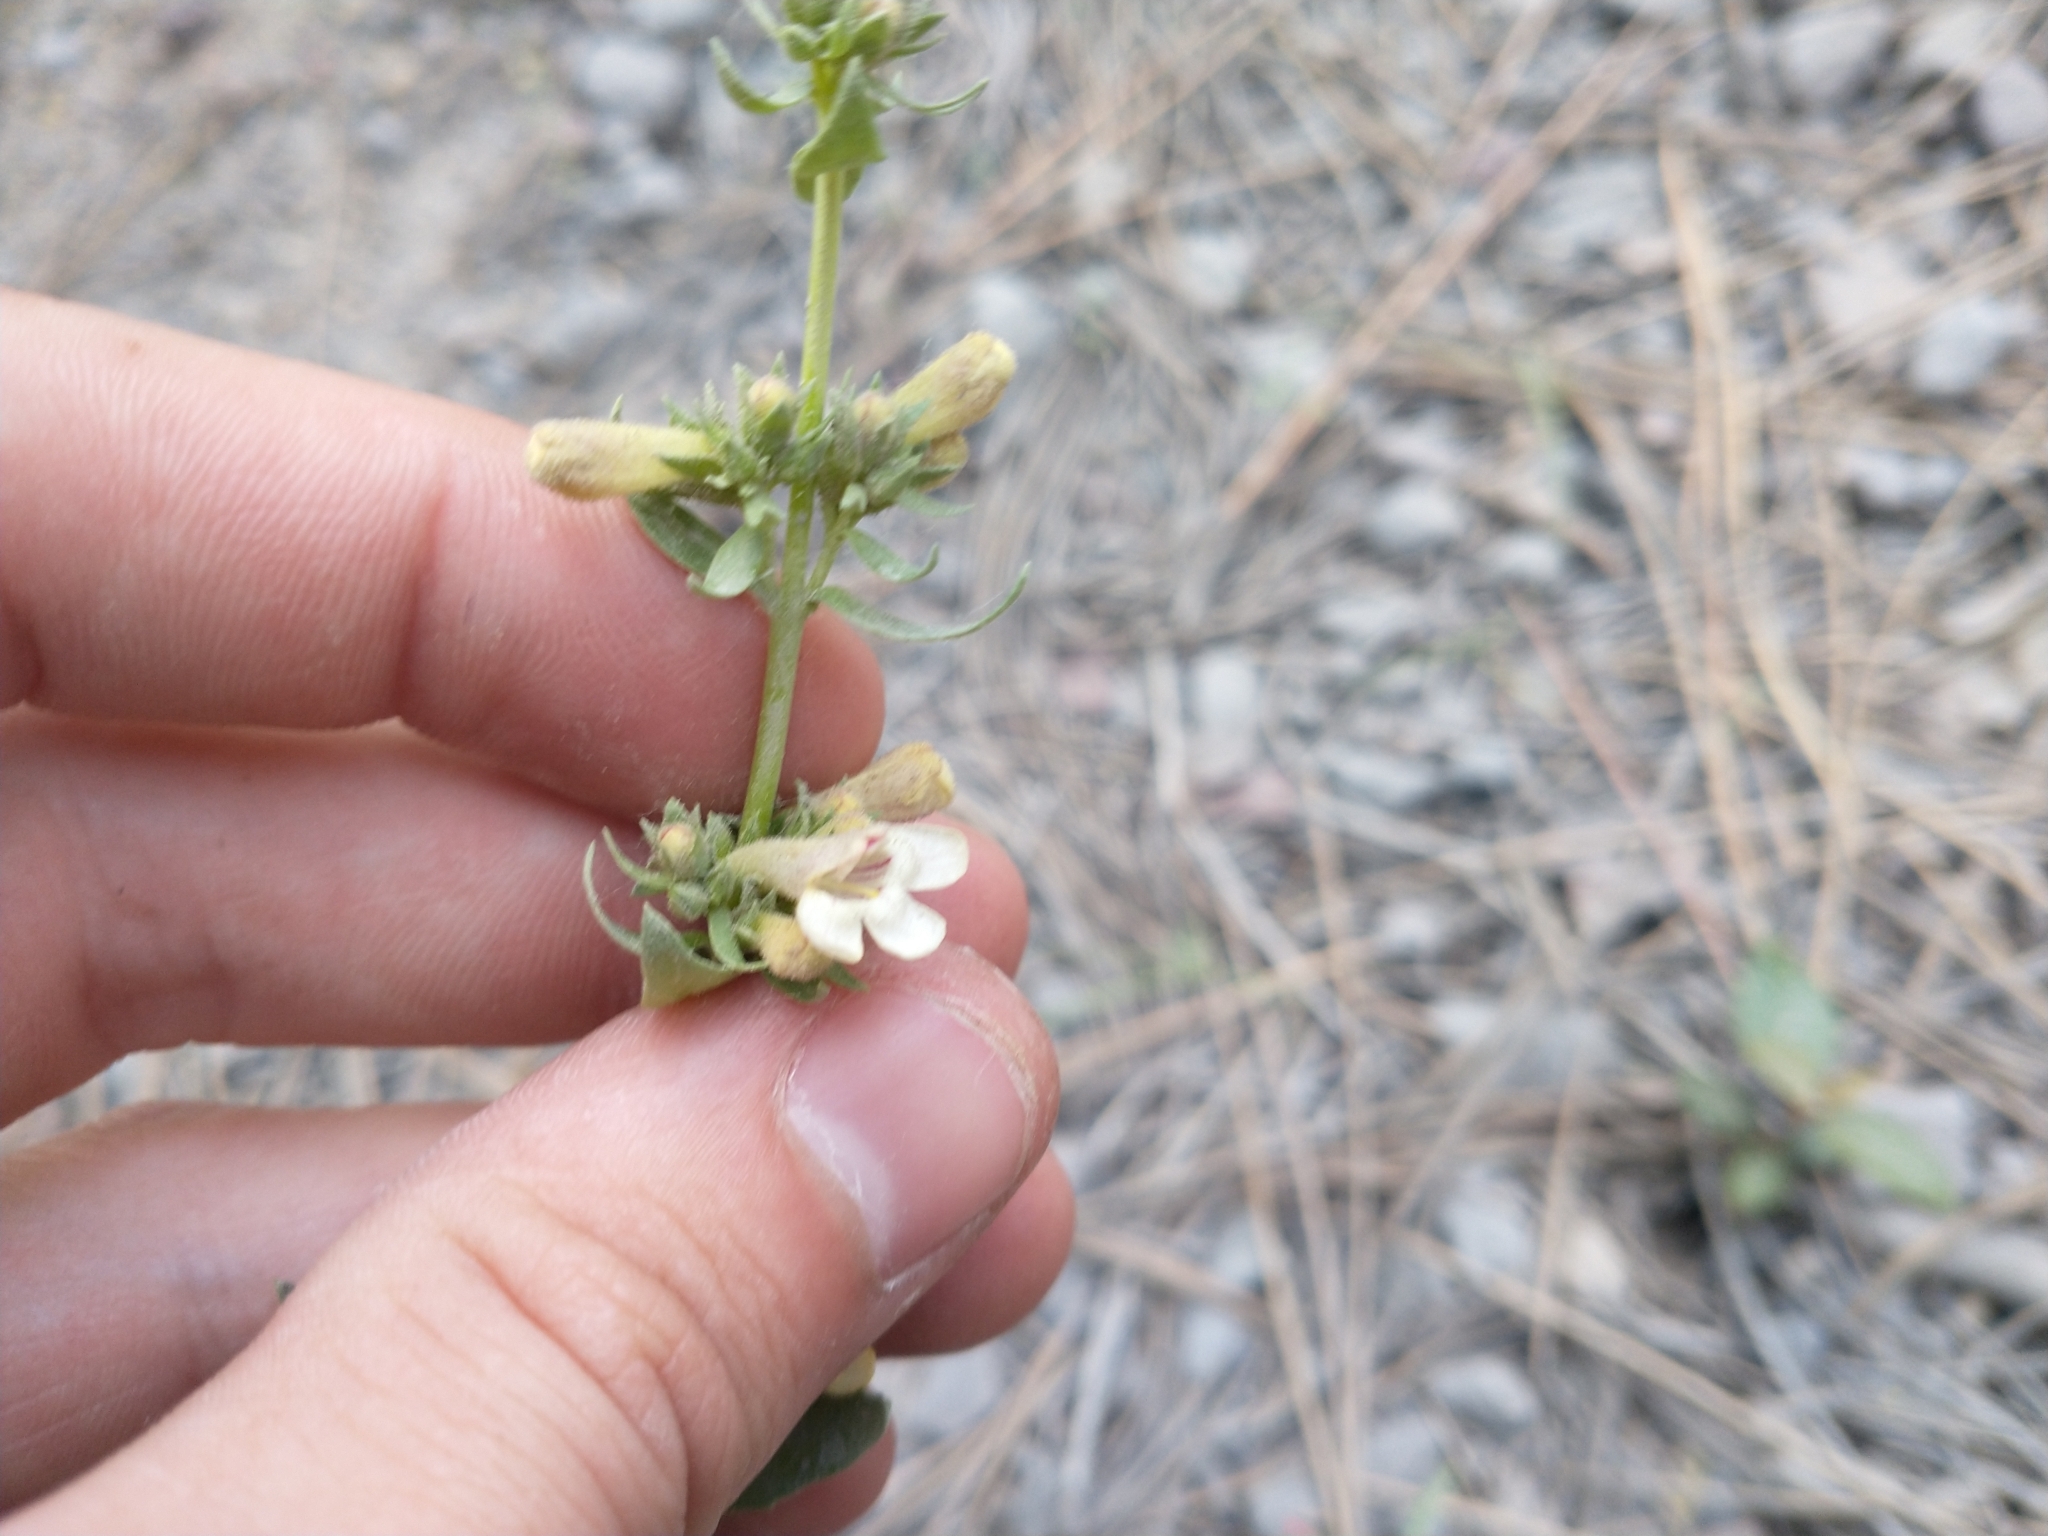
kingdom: Plantae
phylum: Tracheophyta
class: Magnoliopsida
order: Lamiales
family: Plantaginaceae
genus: Penstemon
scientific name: Penstemon deustus
